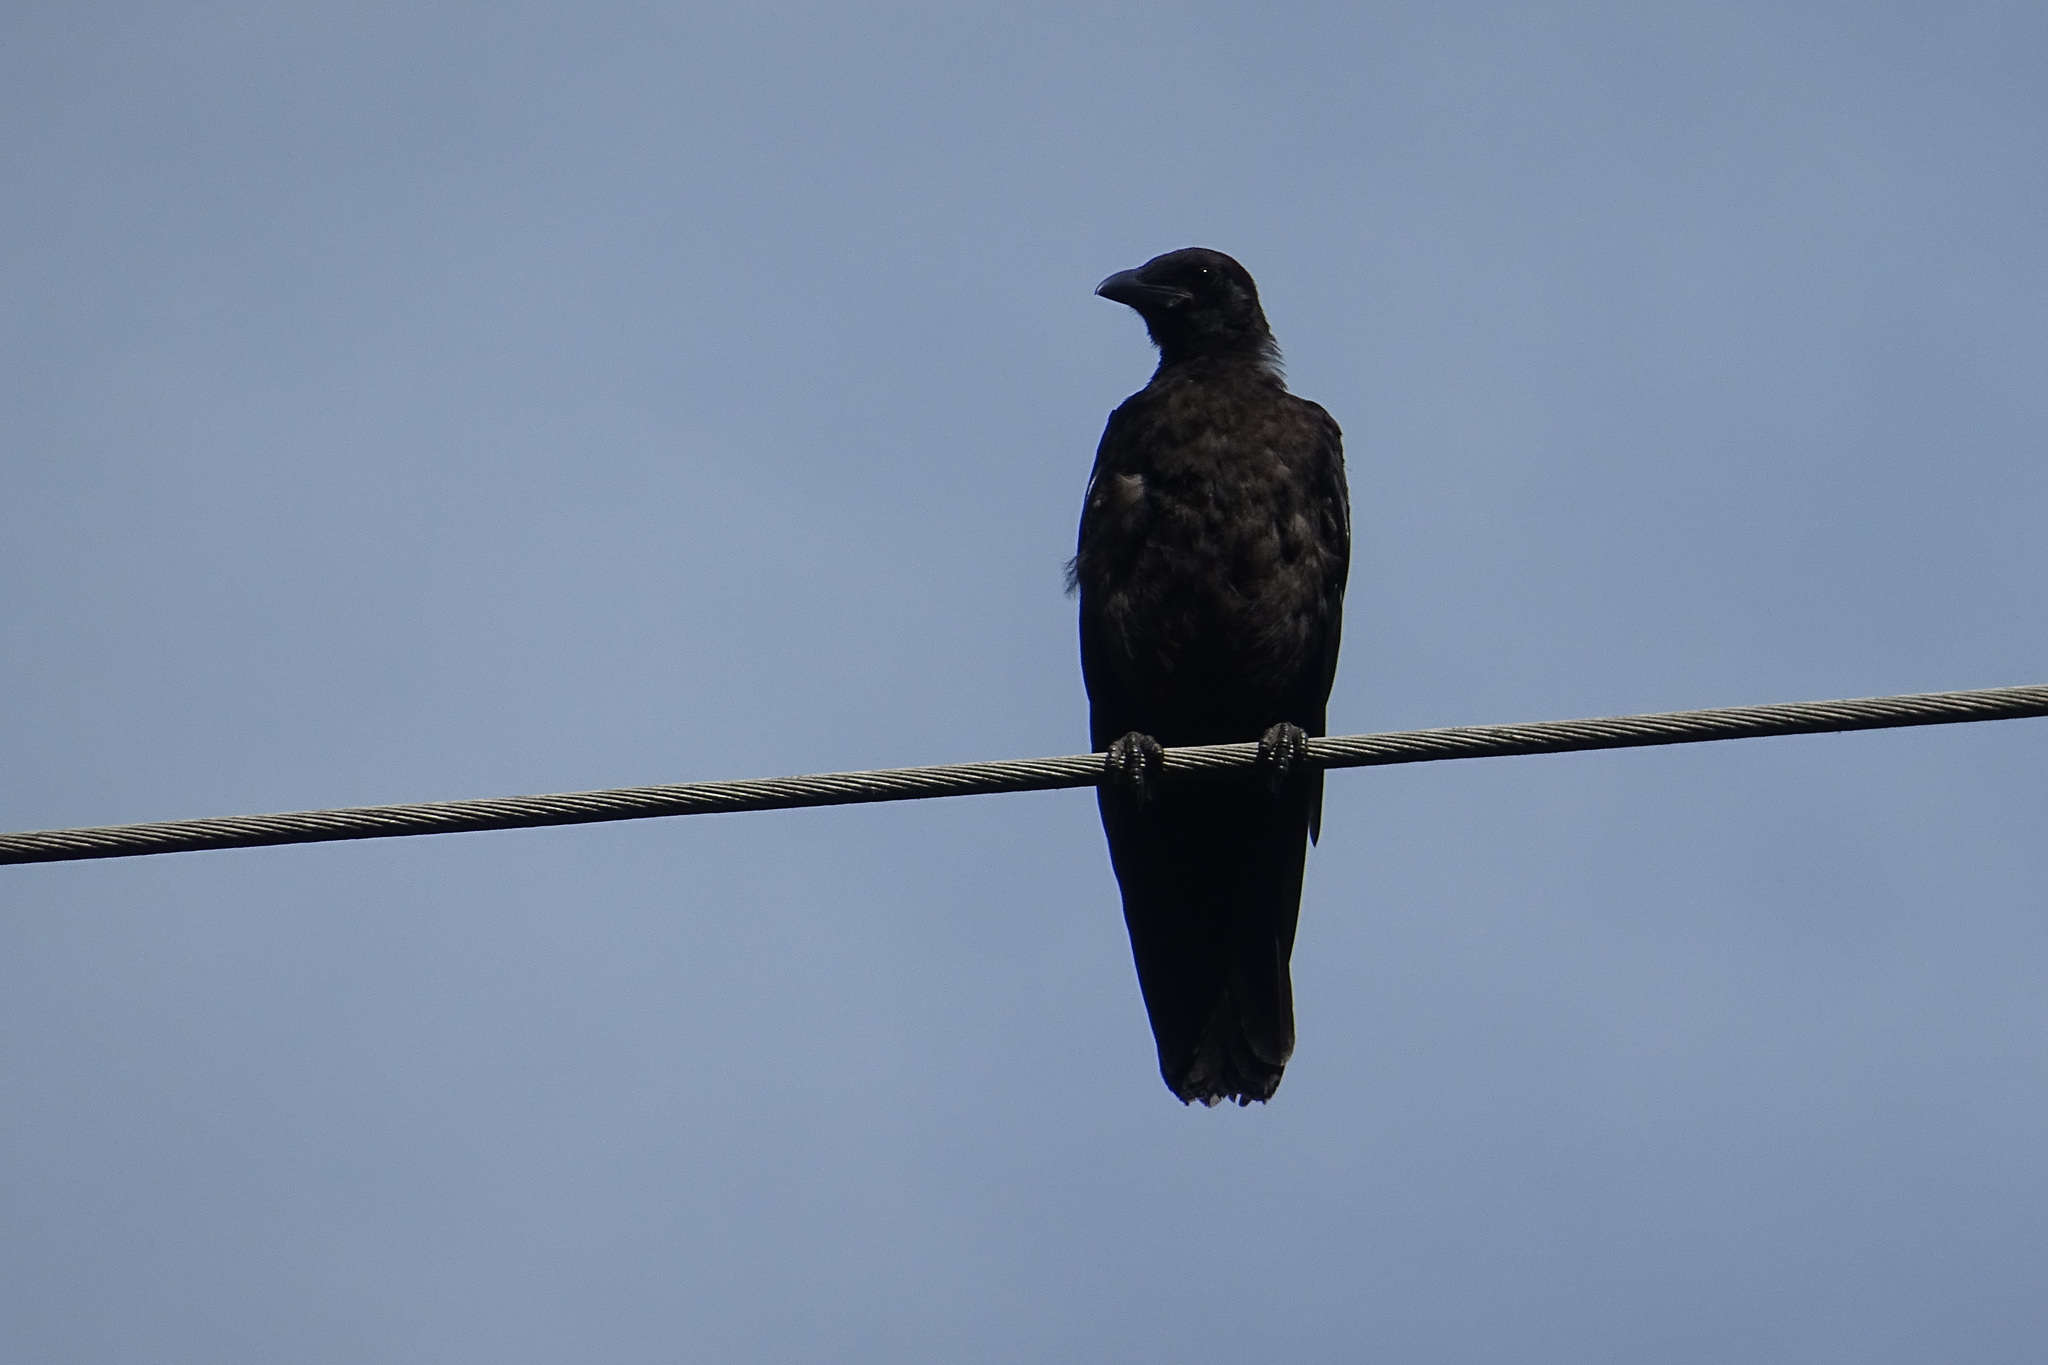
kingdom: Animalia
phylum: Chordata
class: Aves
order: Passeriformes
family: Corvidae
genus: Corvus
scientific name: Corvus corone
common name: Carrion crow
